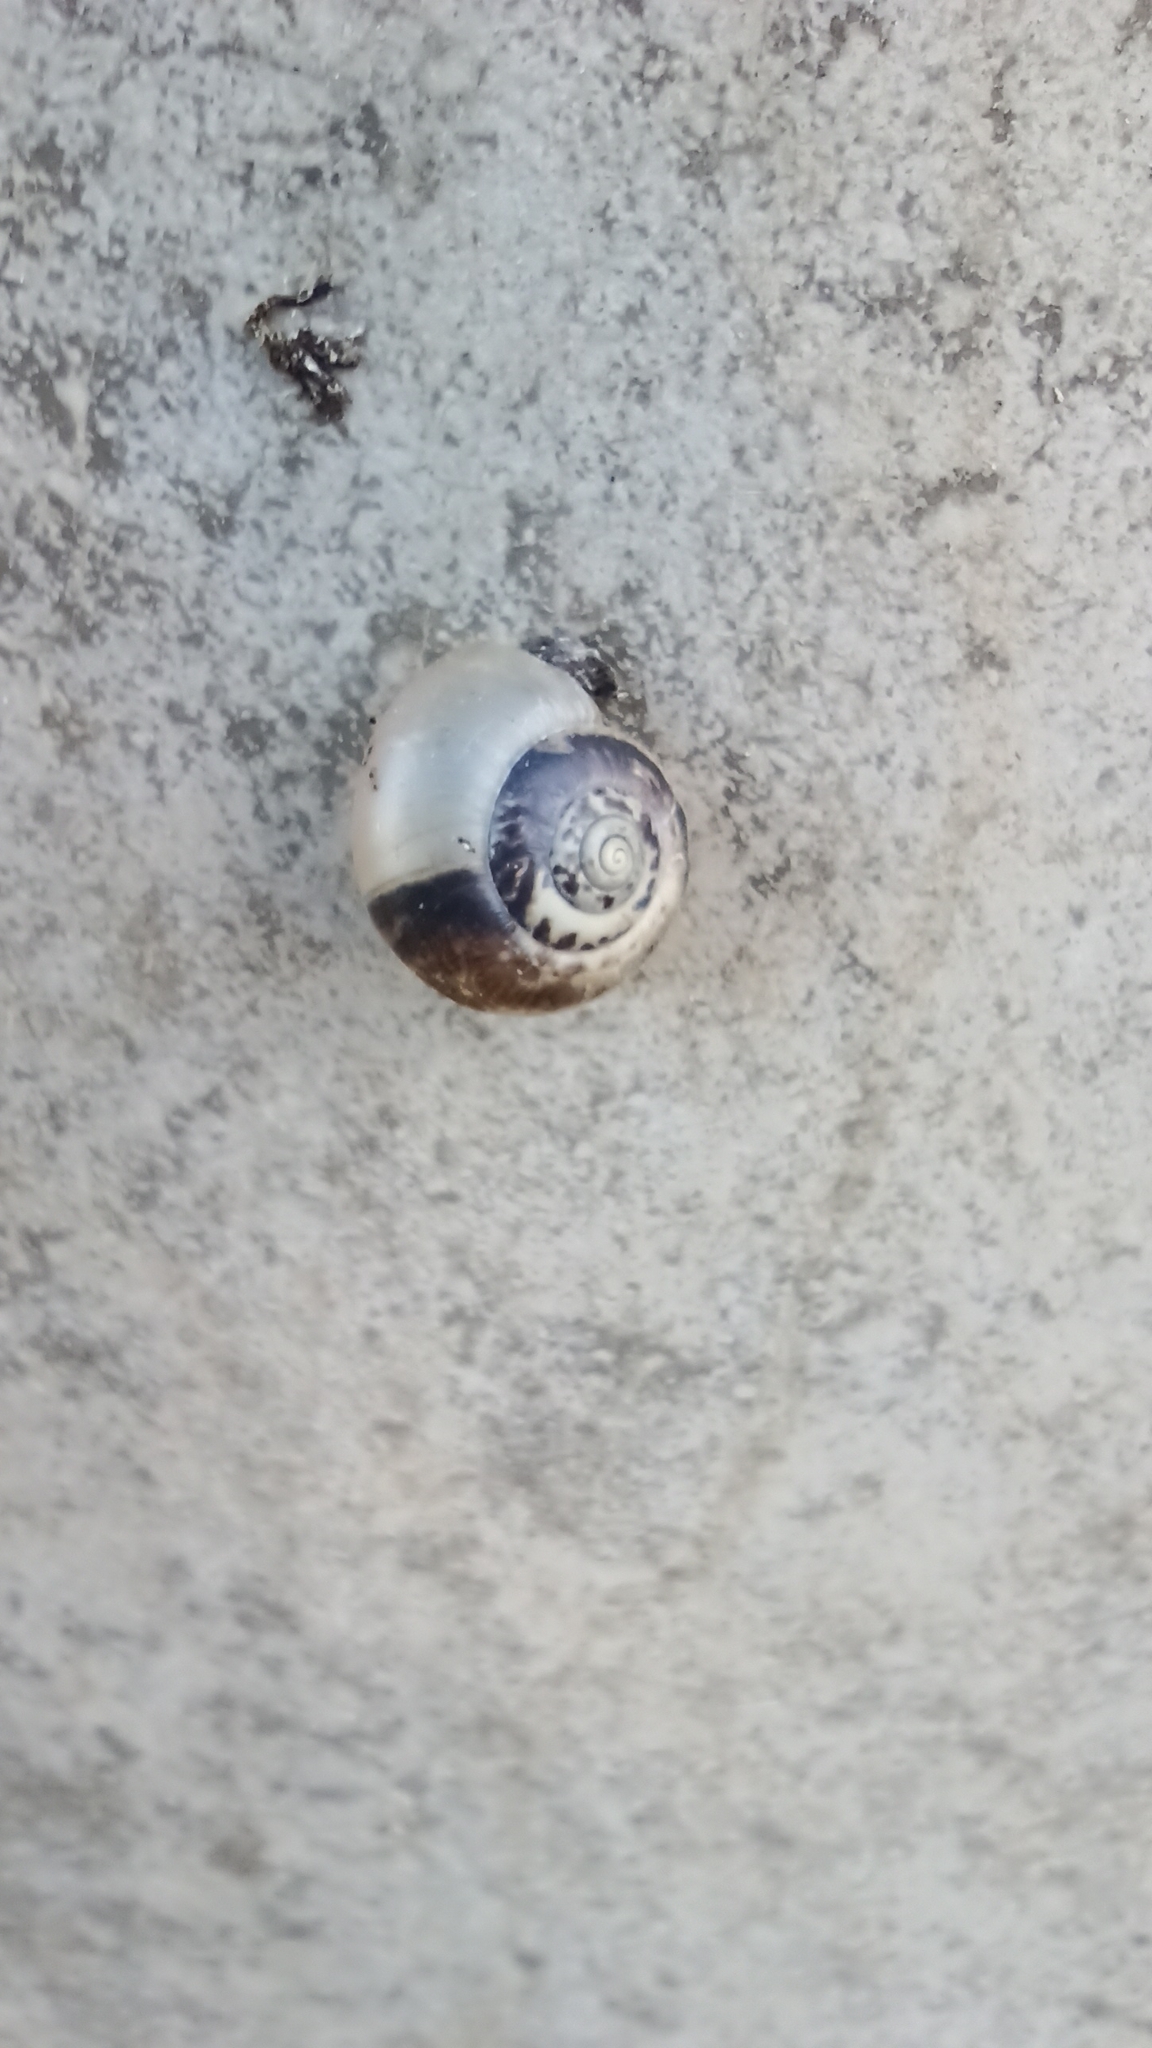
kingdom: Animalia
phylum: Mollusca
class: Gastropoda
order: Stylommatophora
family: Hygromiidae
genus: Monacha
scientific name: Monacha cantiana
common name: Kentish snail
